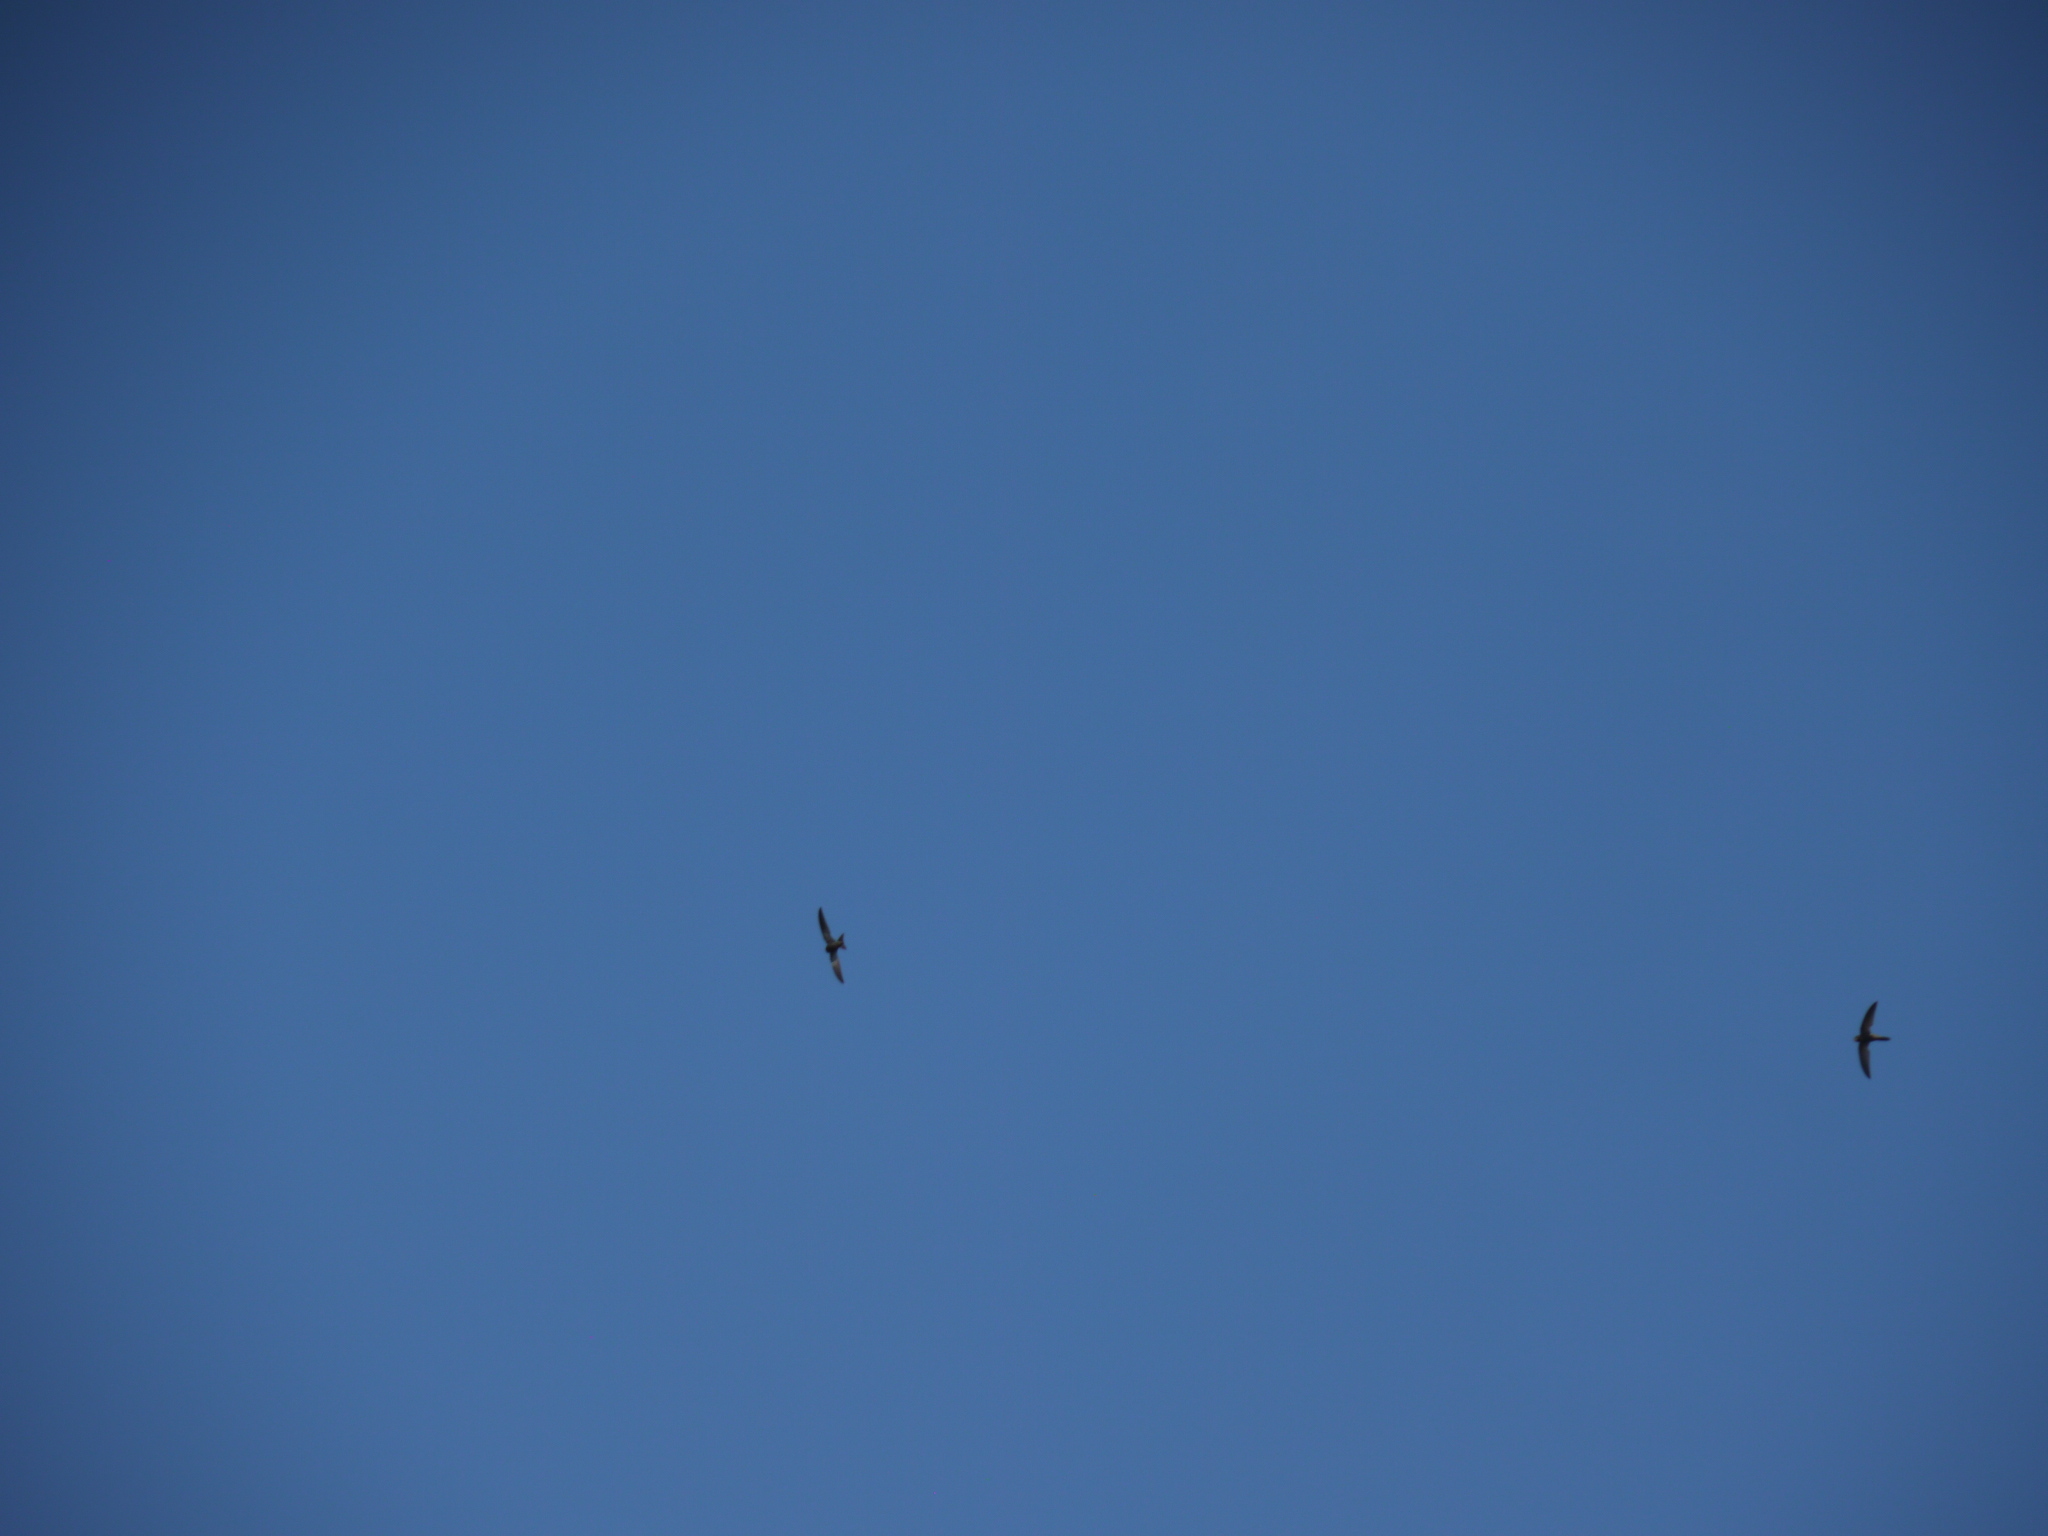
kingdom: Animalia
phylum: Chordata
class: Aves
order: Apodiformes
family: Apodidae
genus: Apus
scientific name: Apus pallidus
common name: Pallid swift
